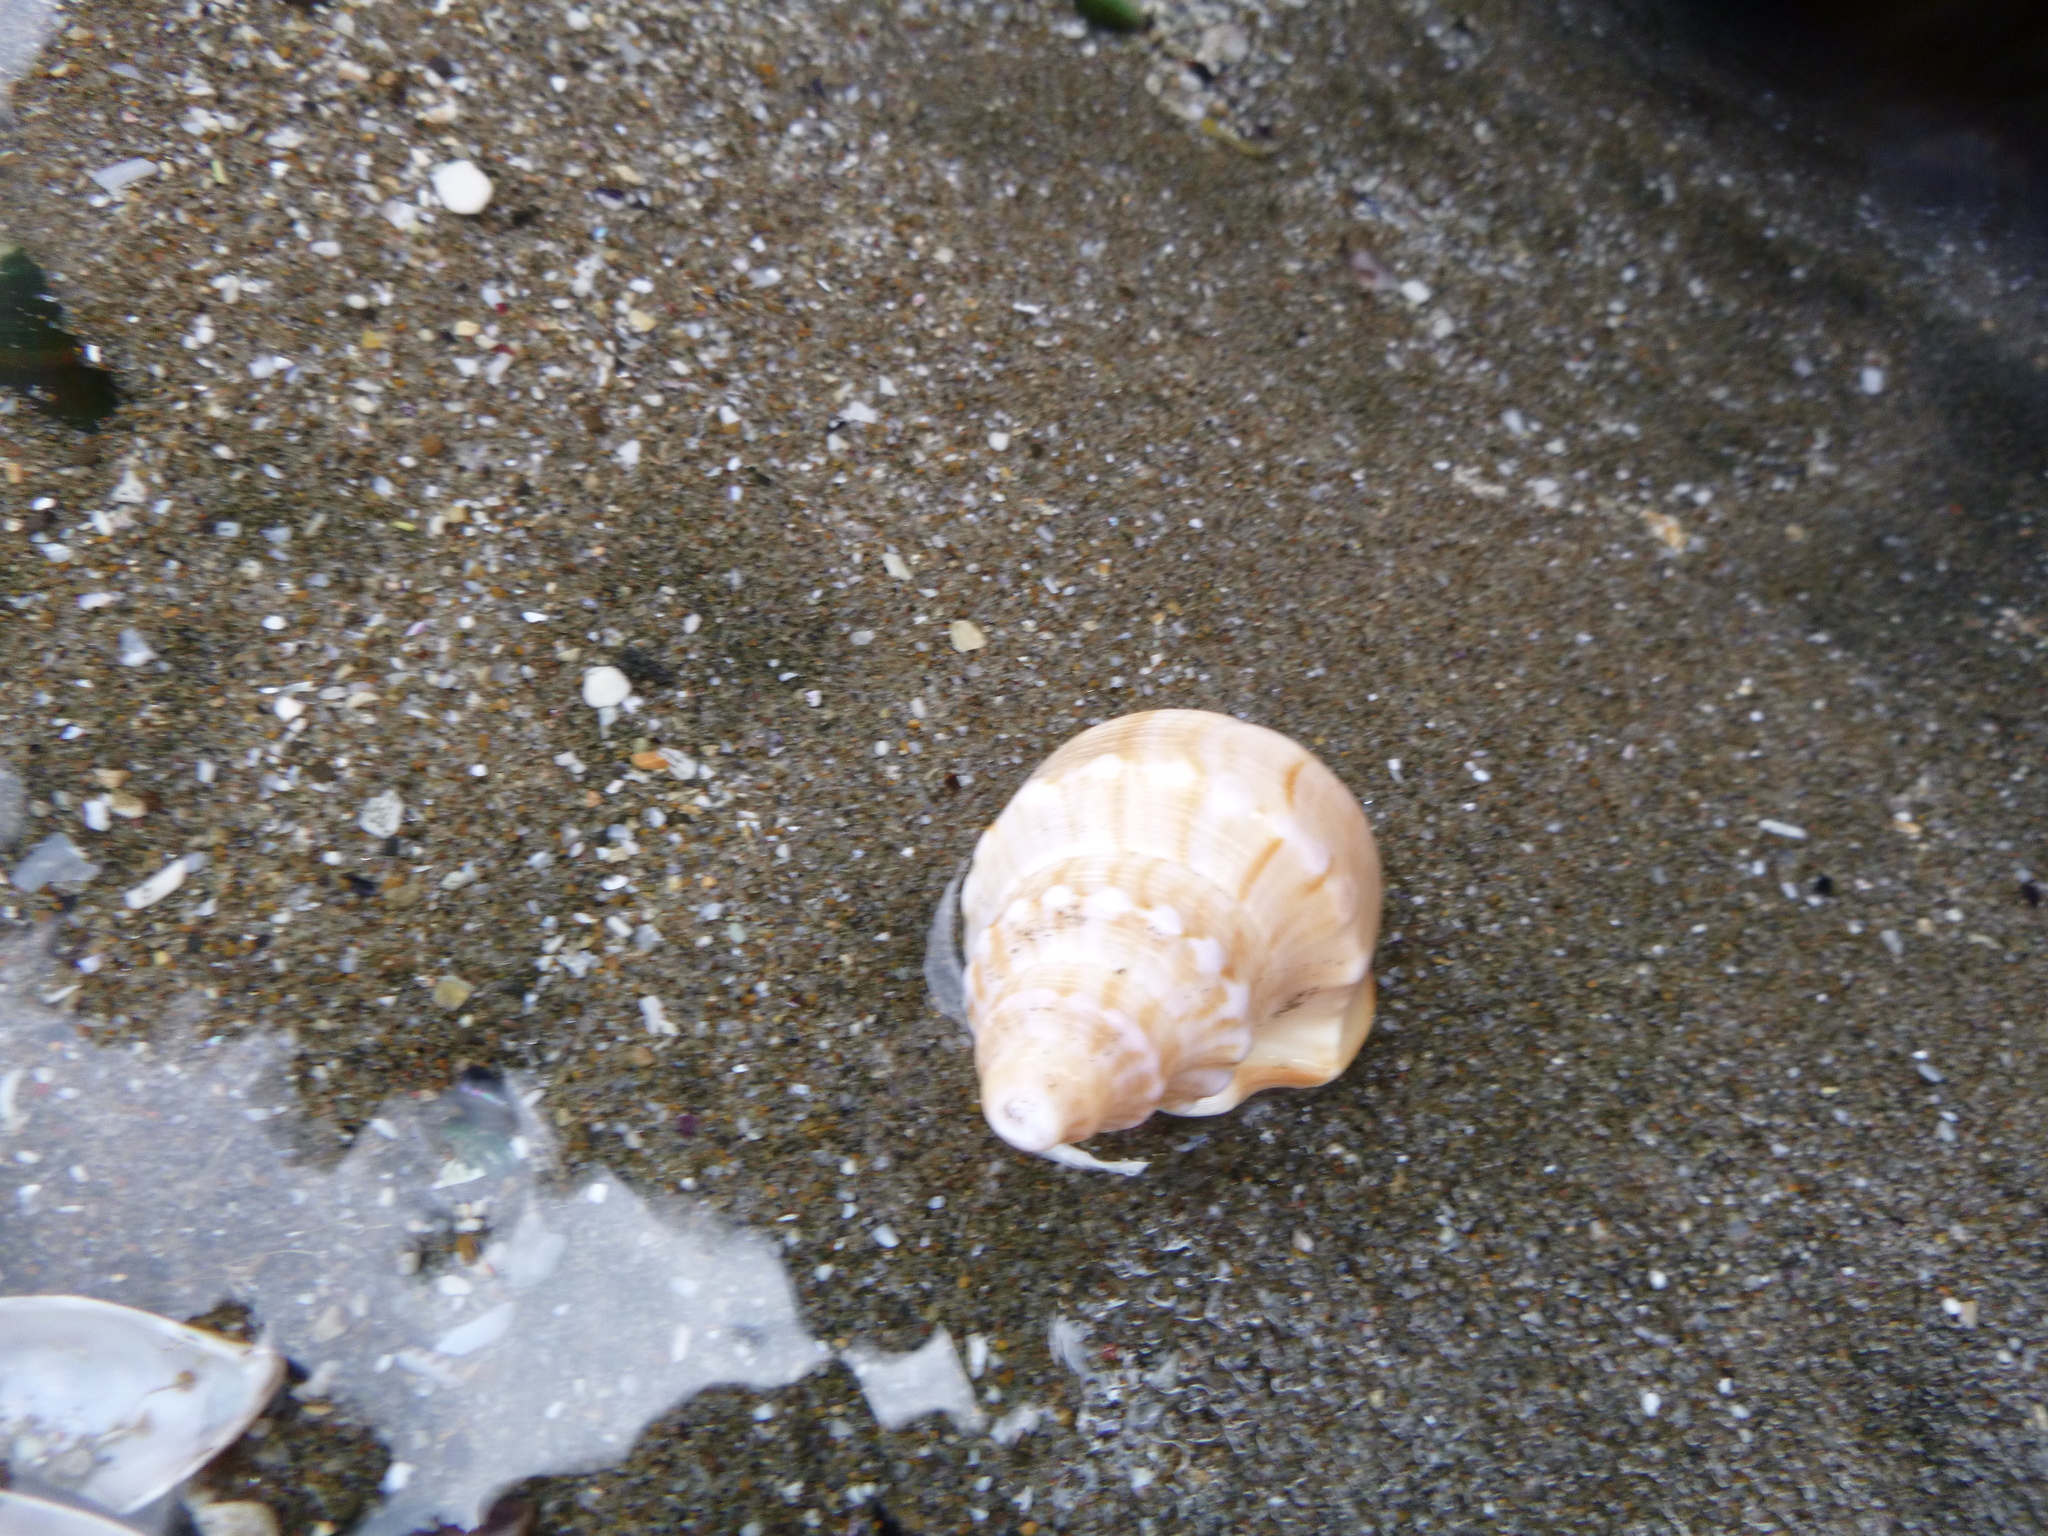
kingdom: Animalia
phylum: Mollusca
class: Gastropoda
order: Littorinimorpha
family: Struthiolariidae
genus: Struthiolaria
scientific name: Struthiolaria papulosa
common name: Large ostrich foot
